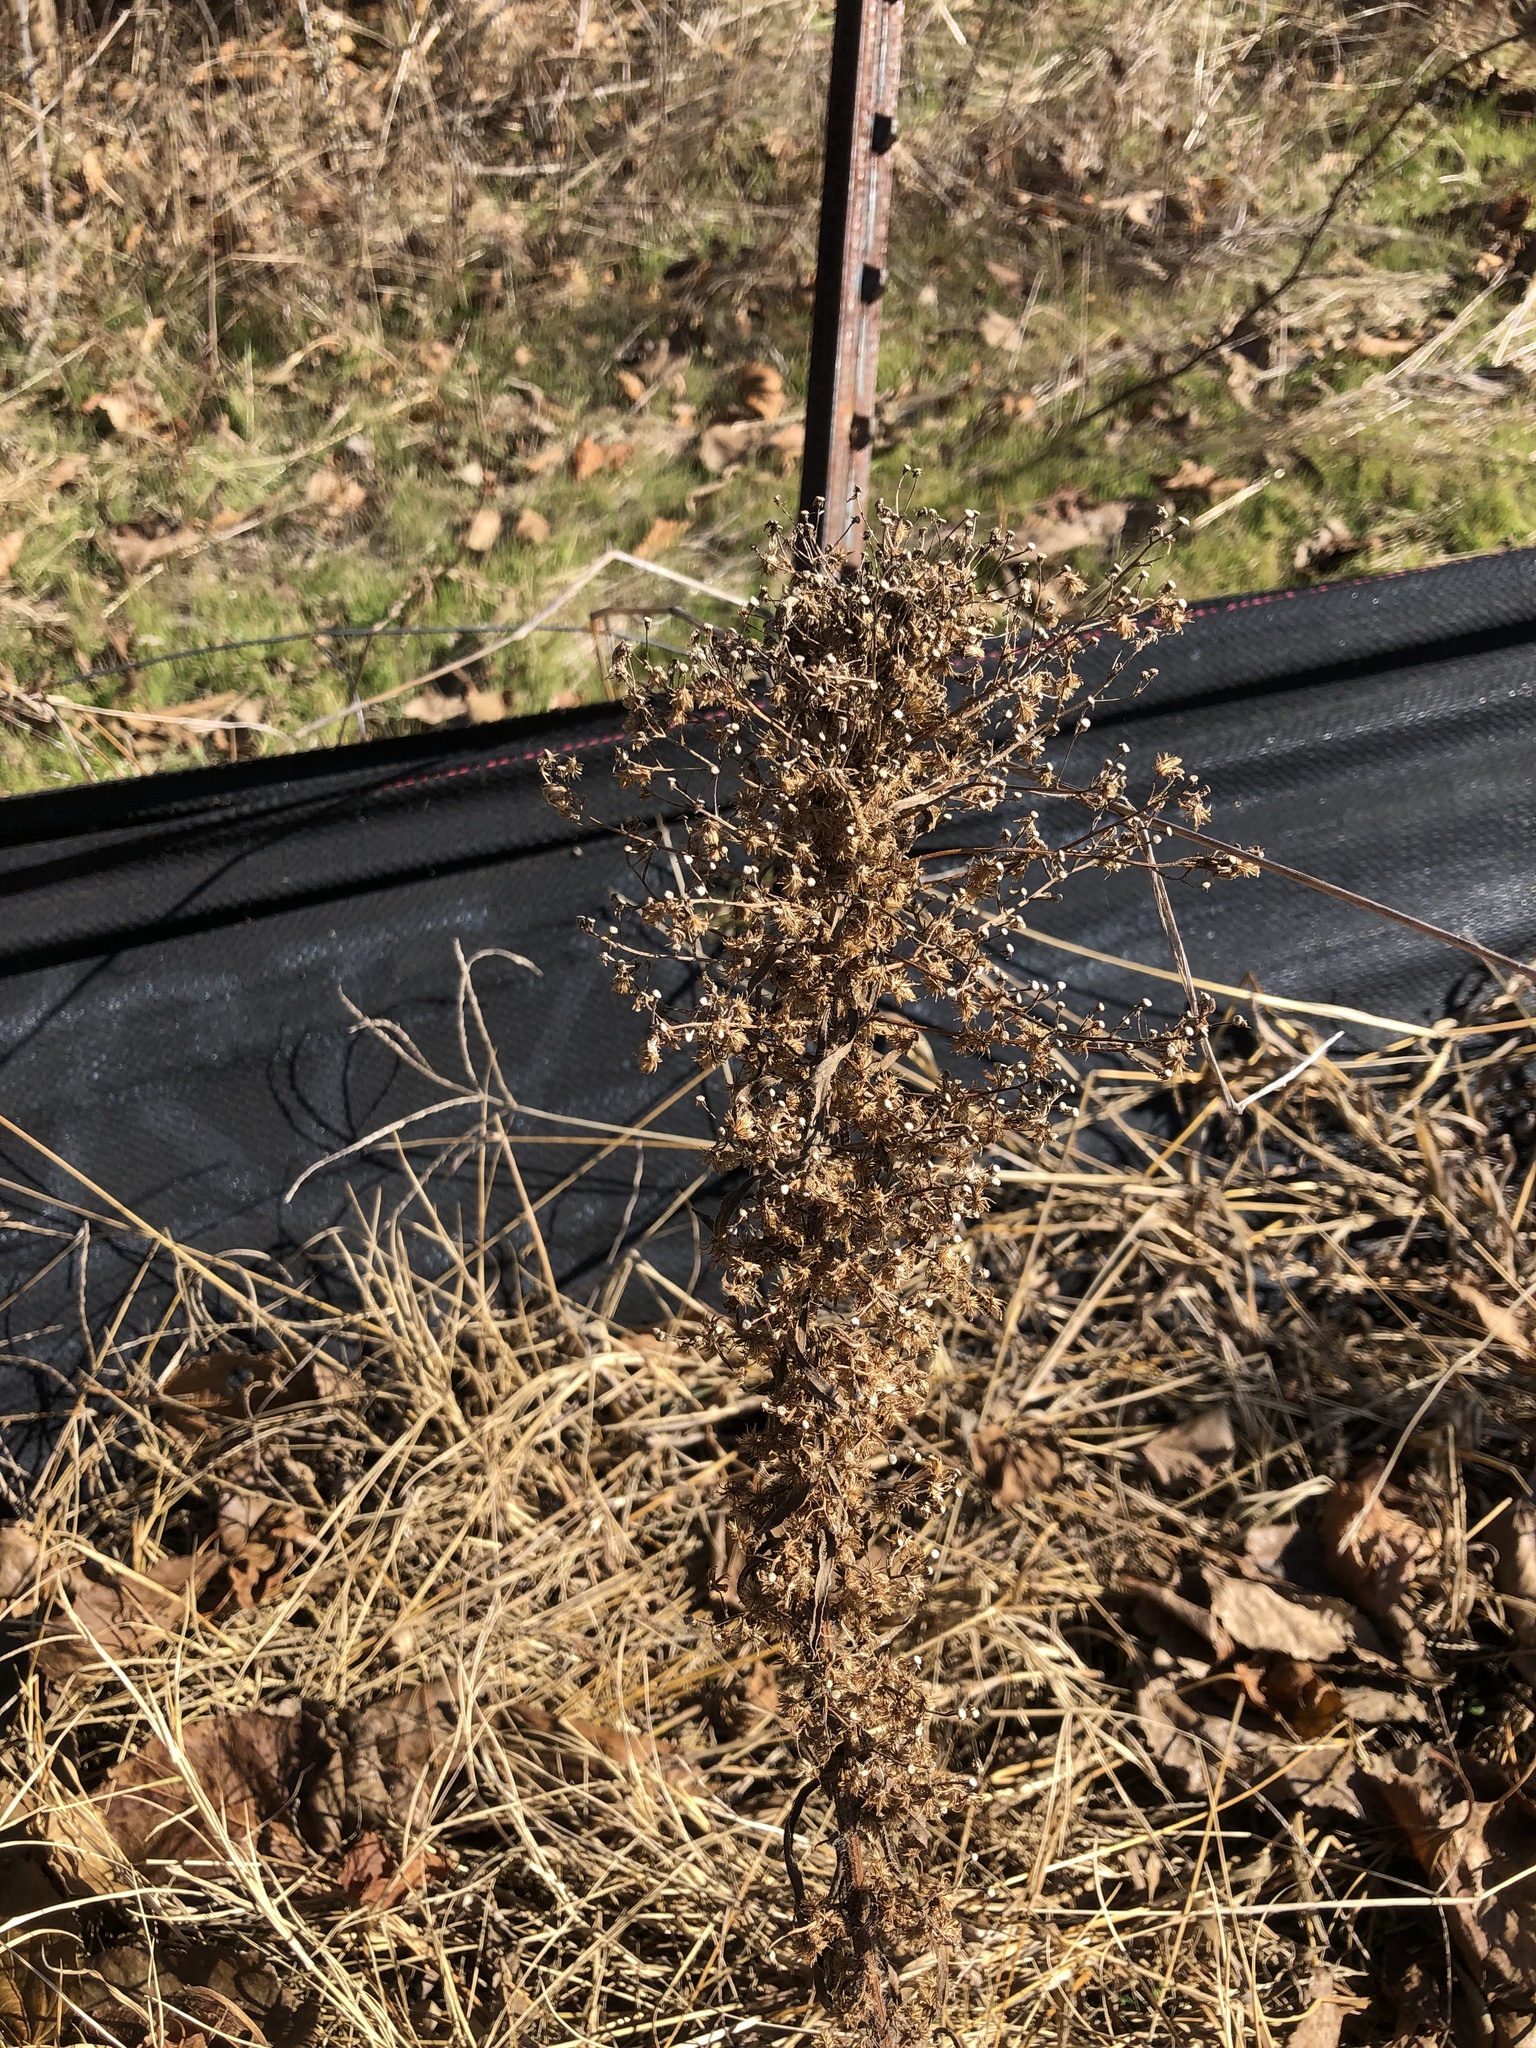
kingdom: Plantae
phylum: Tracheophyta
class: Magnoliopsida
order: Asterales
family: Asteraceae
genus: Erigeron
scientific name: Erigeron canadensis
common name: Canadian fleabane
